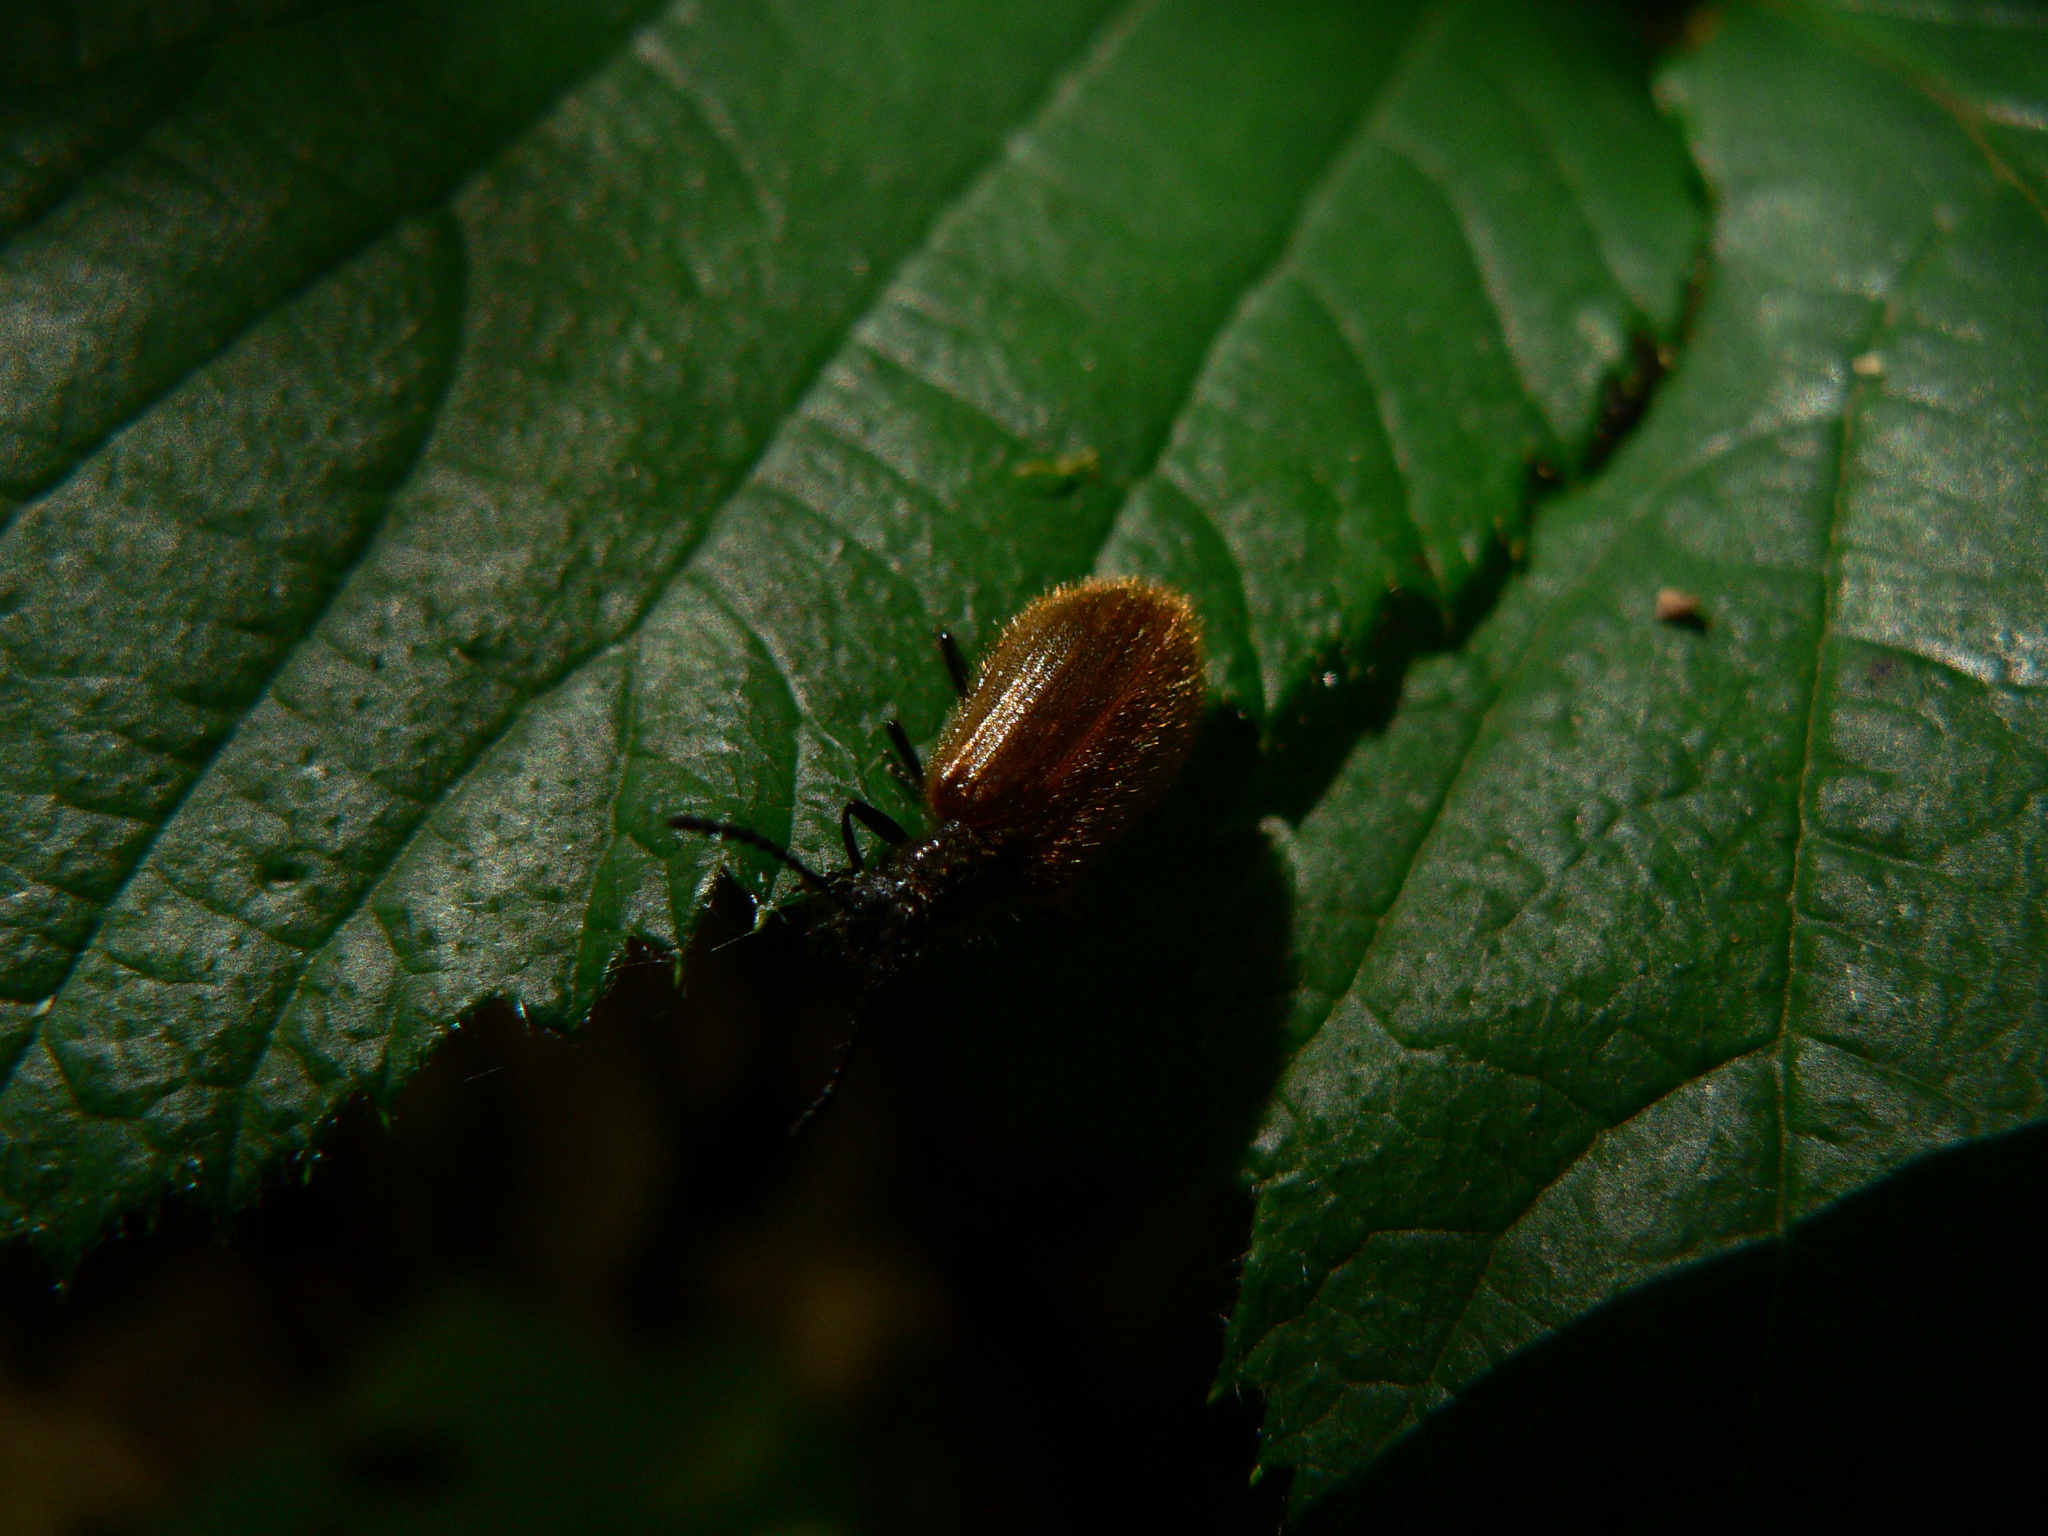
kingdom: Animalia
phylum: Arthropoda
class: Insecta
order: Coleoptera
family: Tenebrionidae
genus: Lagria
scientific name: Lagria hirta
